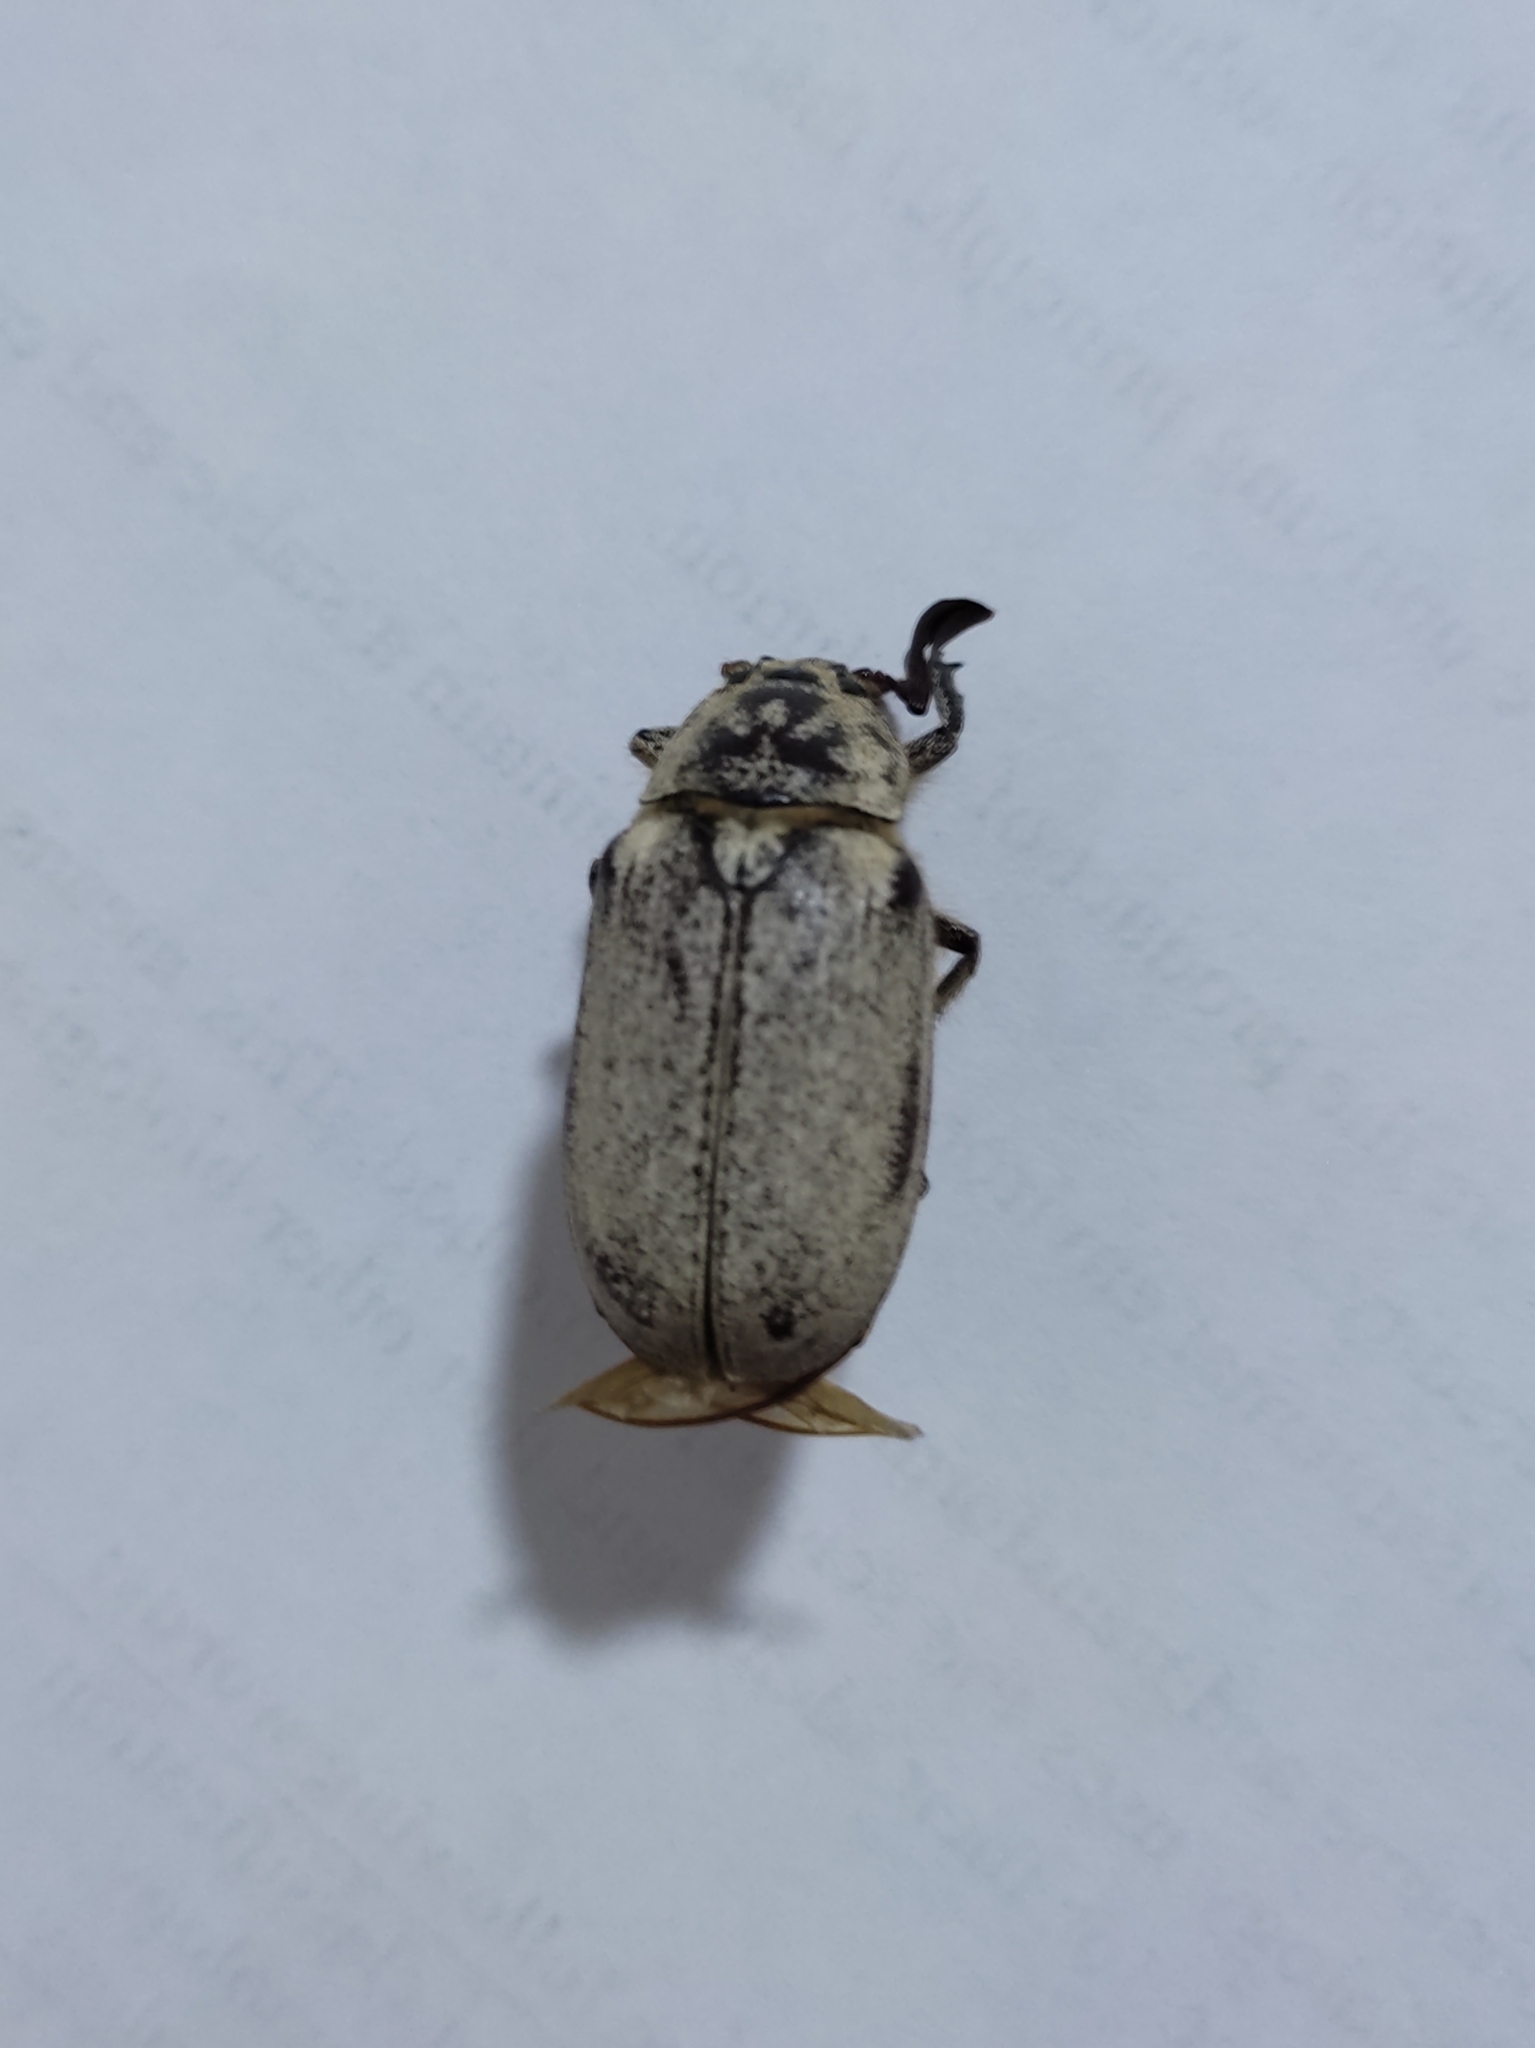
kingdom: Animalia
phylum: Arthropoda
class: Insecta
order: Coleoptera
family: Scarabaeidae
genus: Polyphylla
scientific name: Polyphylla alba
